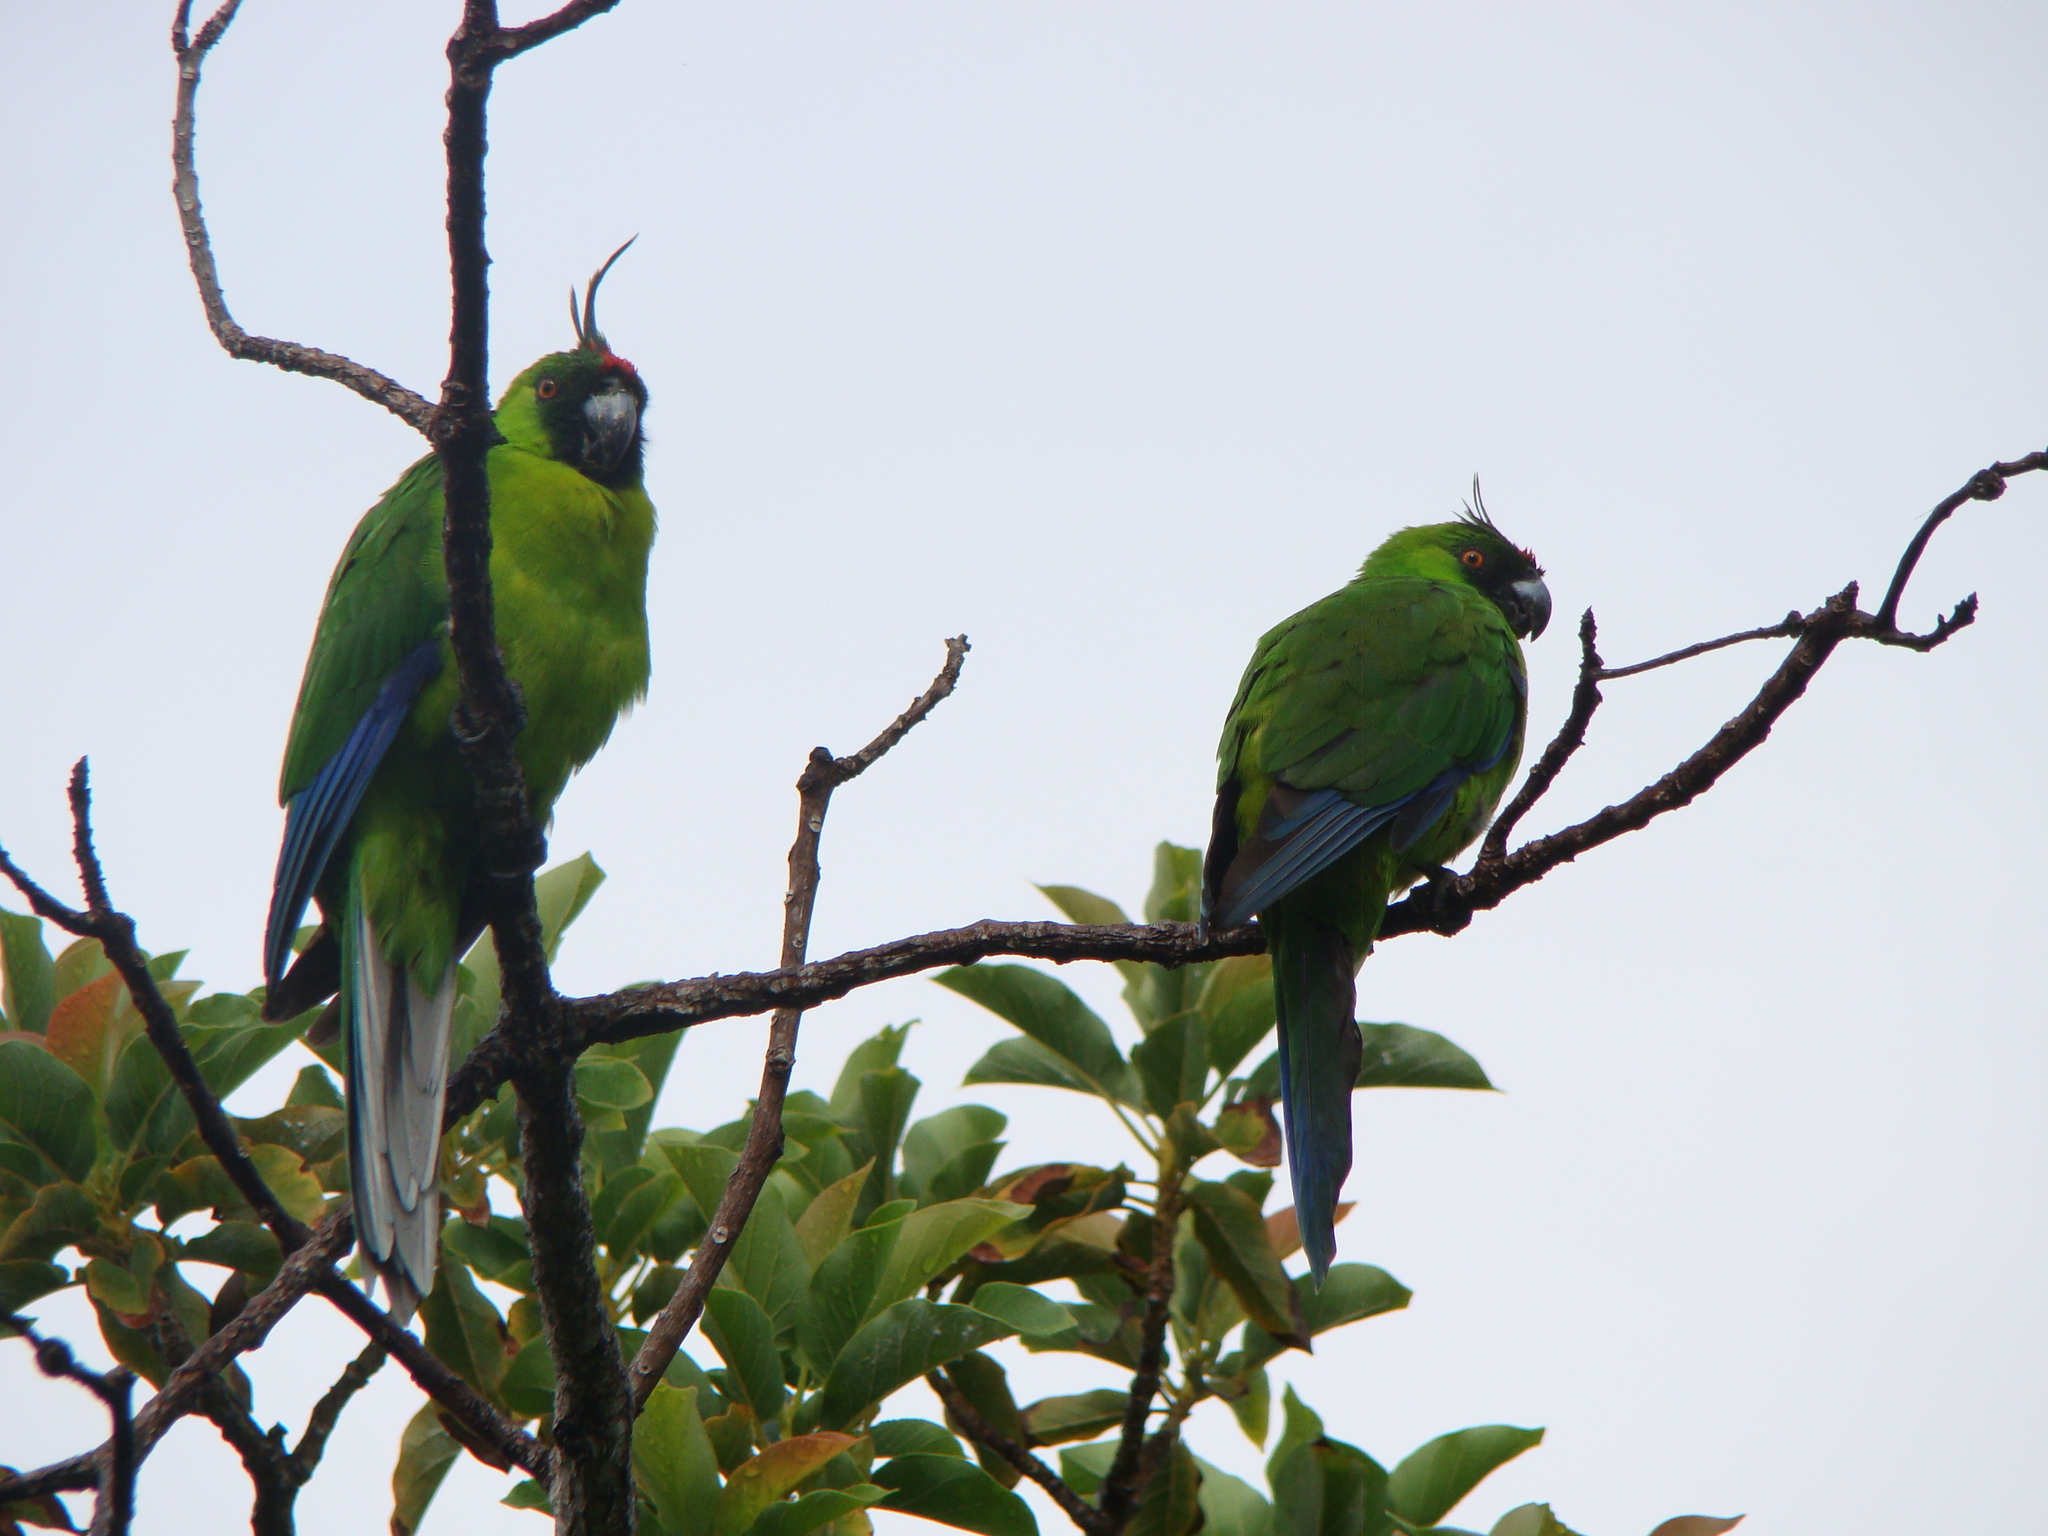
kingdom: Animalia
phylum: Chordata
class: Aves
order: Psittaciformes
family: Psittacidae
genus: Eunymphicus
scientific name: Eunymphicus cornutus
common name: Horned parakeet
